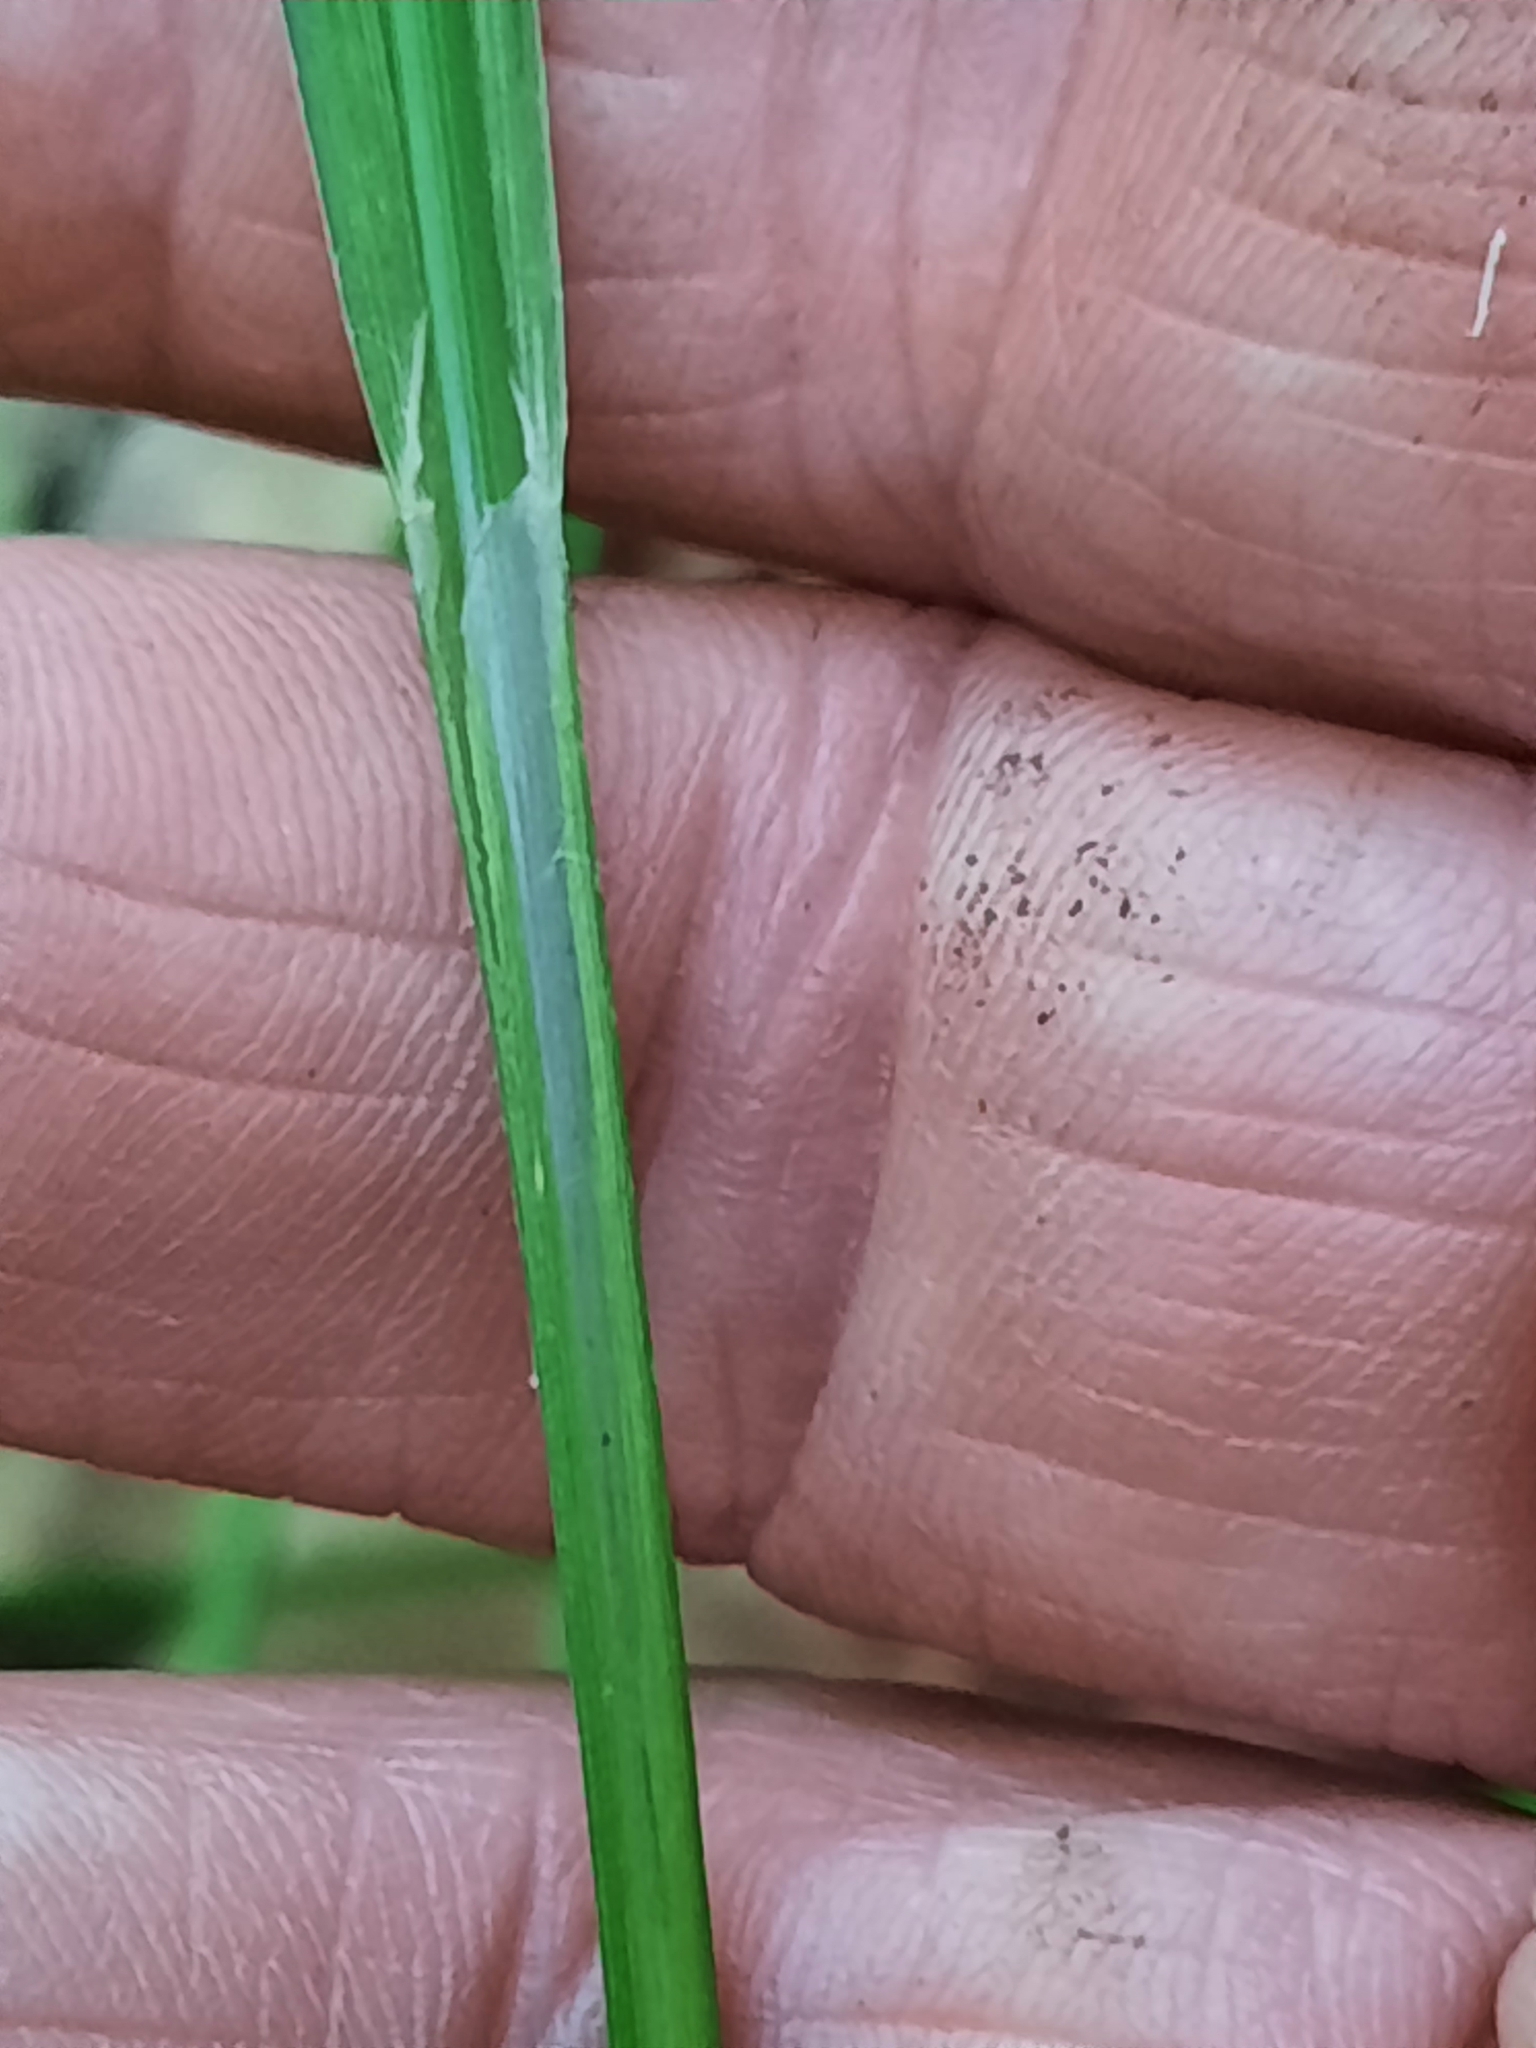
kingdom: Plantae
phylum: Tracheophyta
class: Liliopsida
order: Poales
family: Cyperaceae
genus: Carex
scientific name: Carex intumescens
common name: Greater bladder sedge
